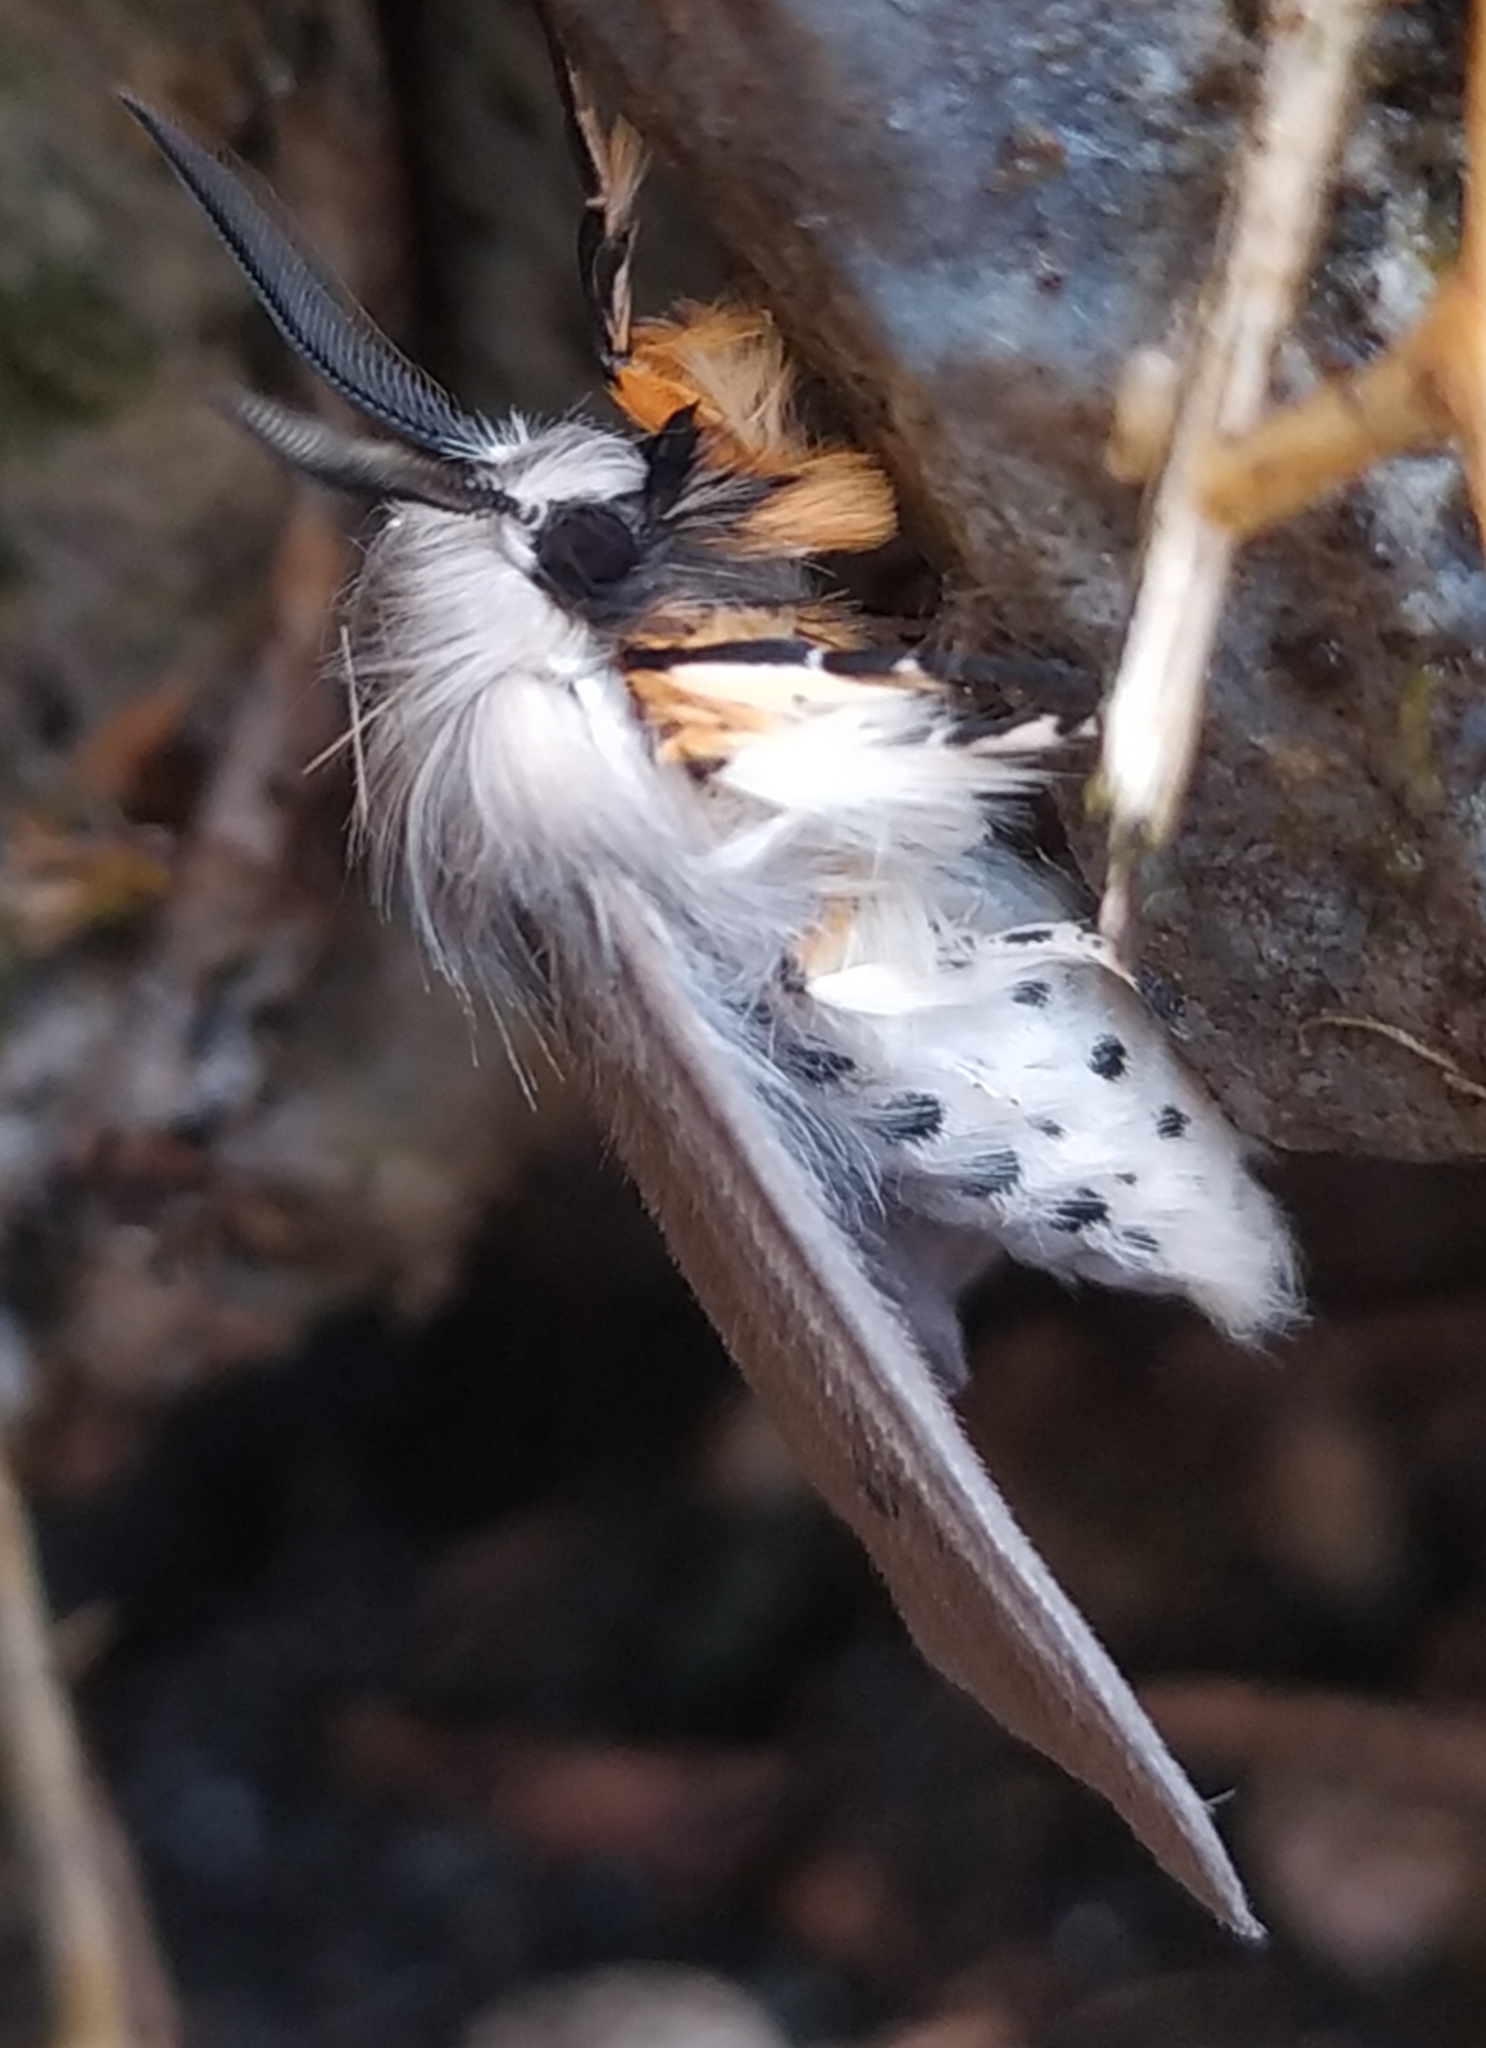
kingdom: Animalia
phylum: Arthropoda
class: Insecta
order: Lepidoptera
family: Erebidae
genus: Diaphora
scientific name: Diaphora mendica
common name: Muslin moth
